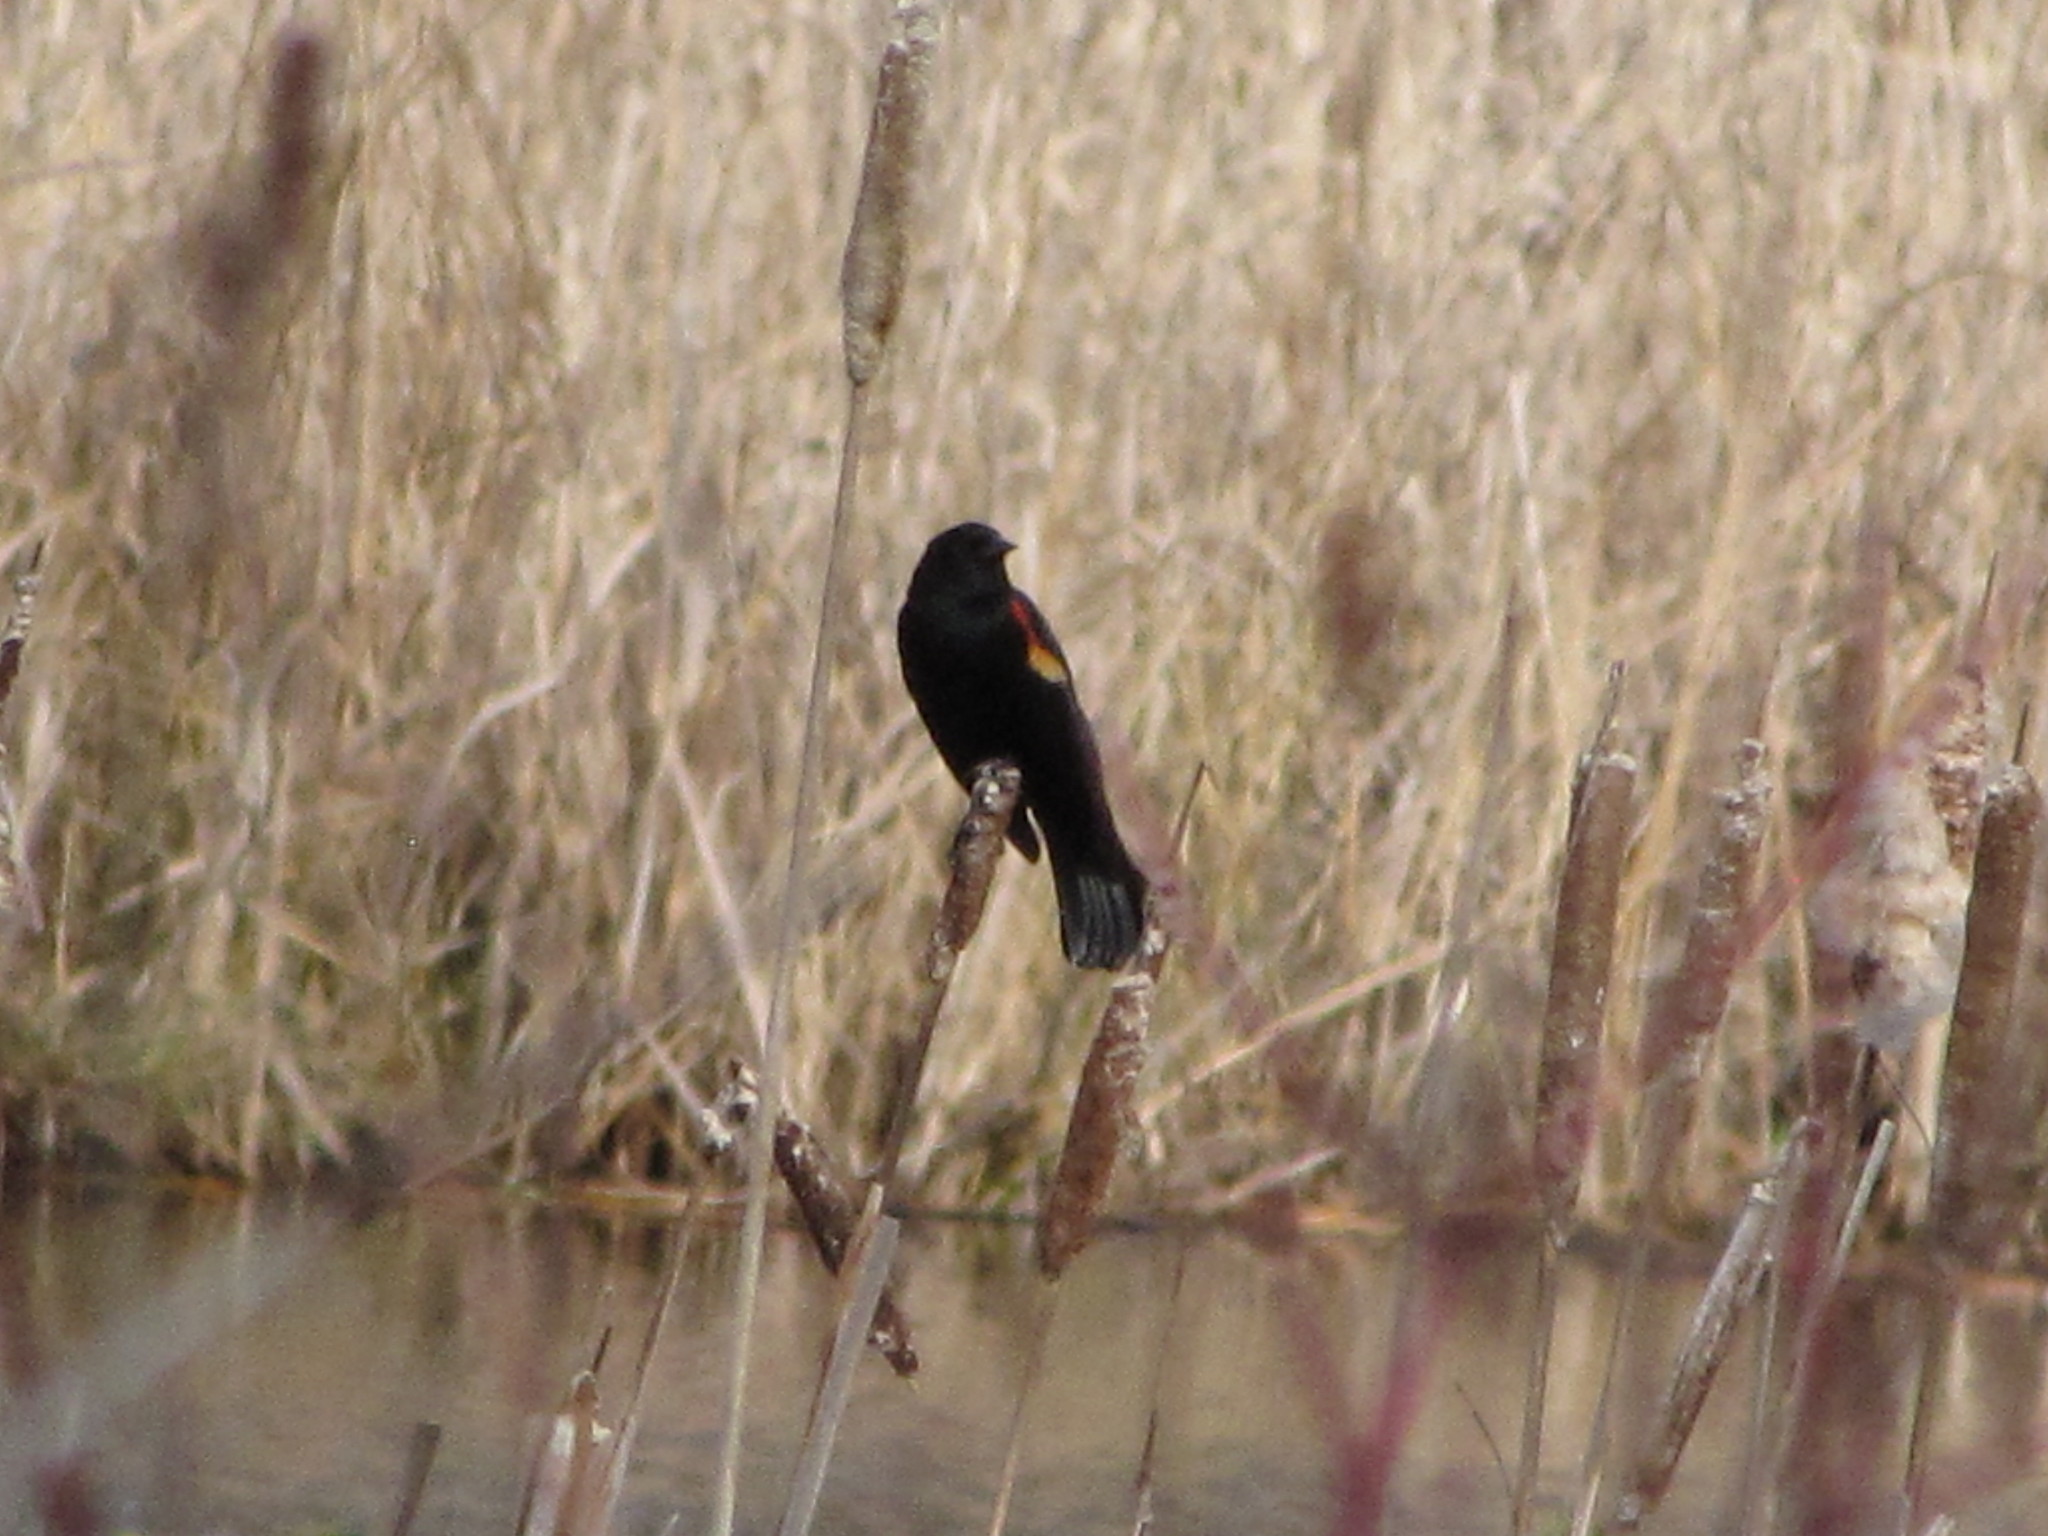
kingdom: Animalia
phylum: Chordata
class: Aves
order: Passeriformes
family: Icteridae
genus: Agelaius
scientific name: Agelaius phoeniceus
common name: Red-winged blackbird
